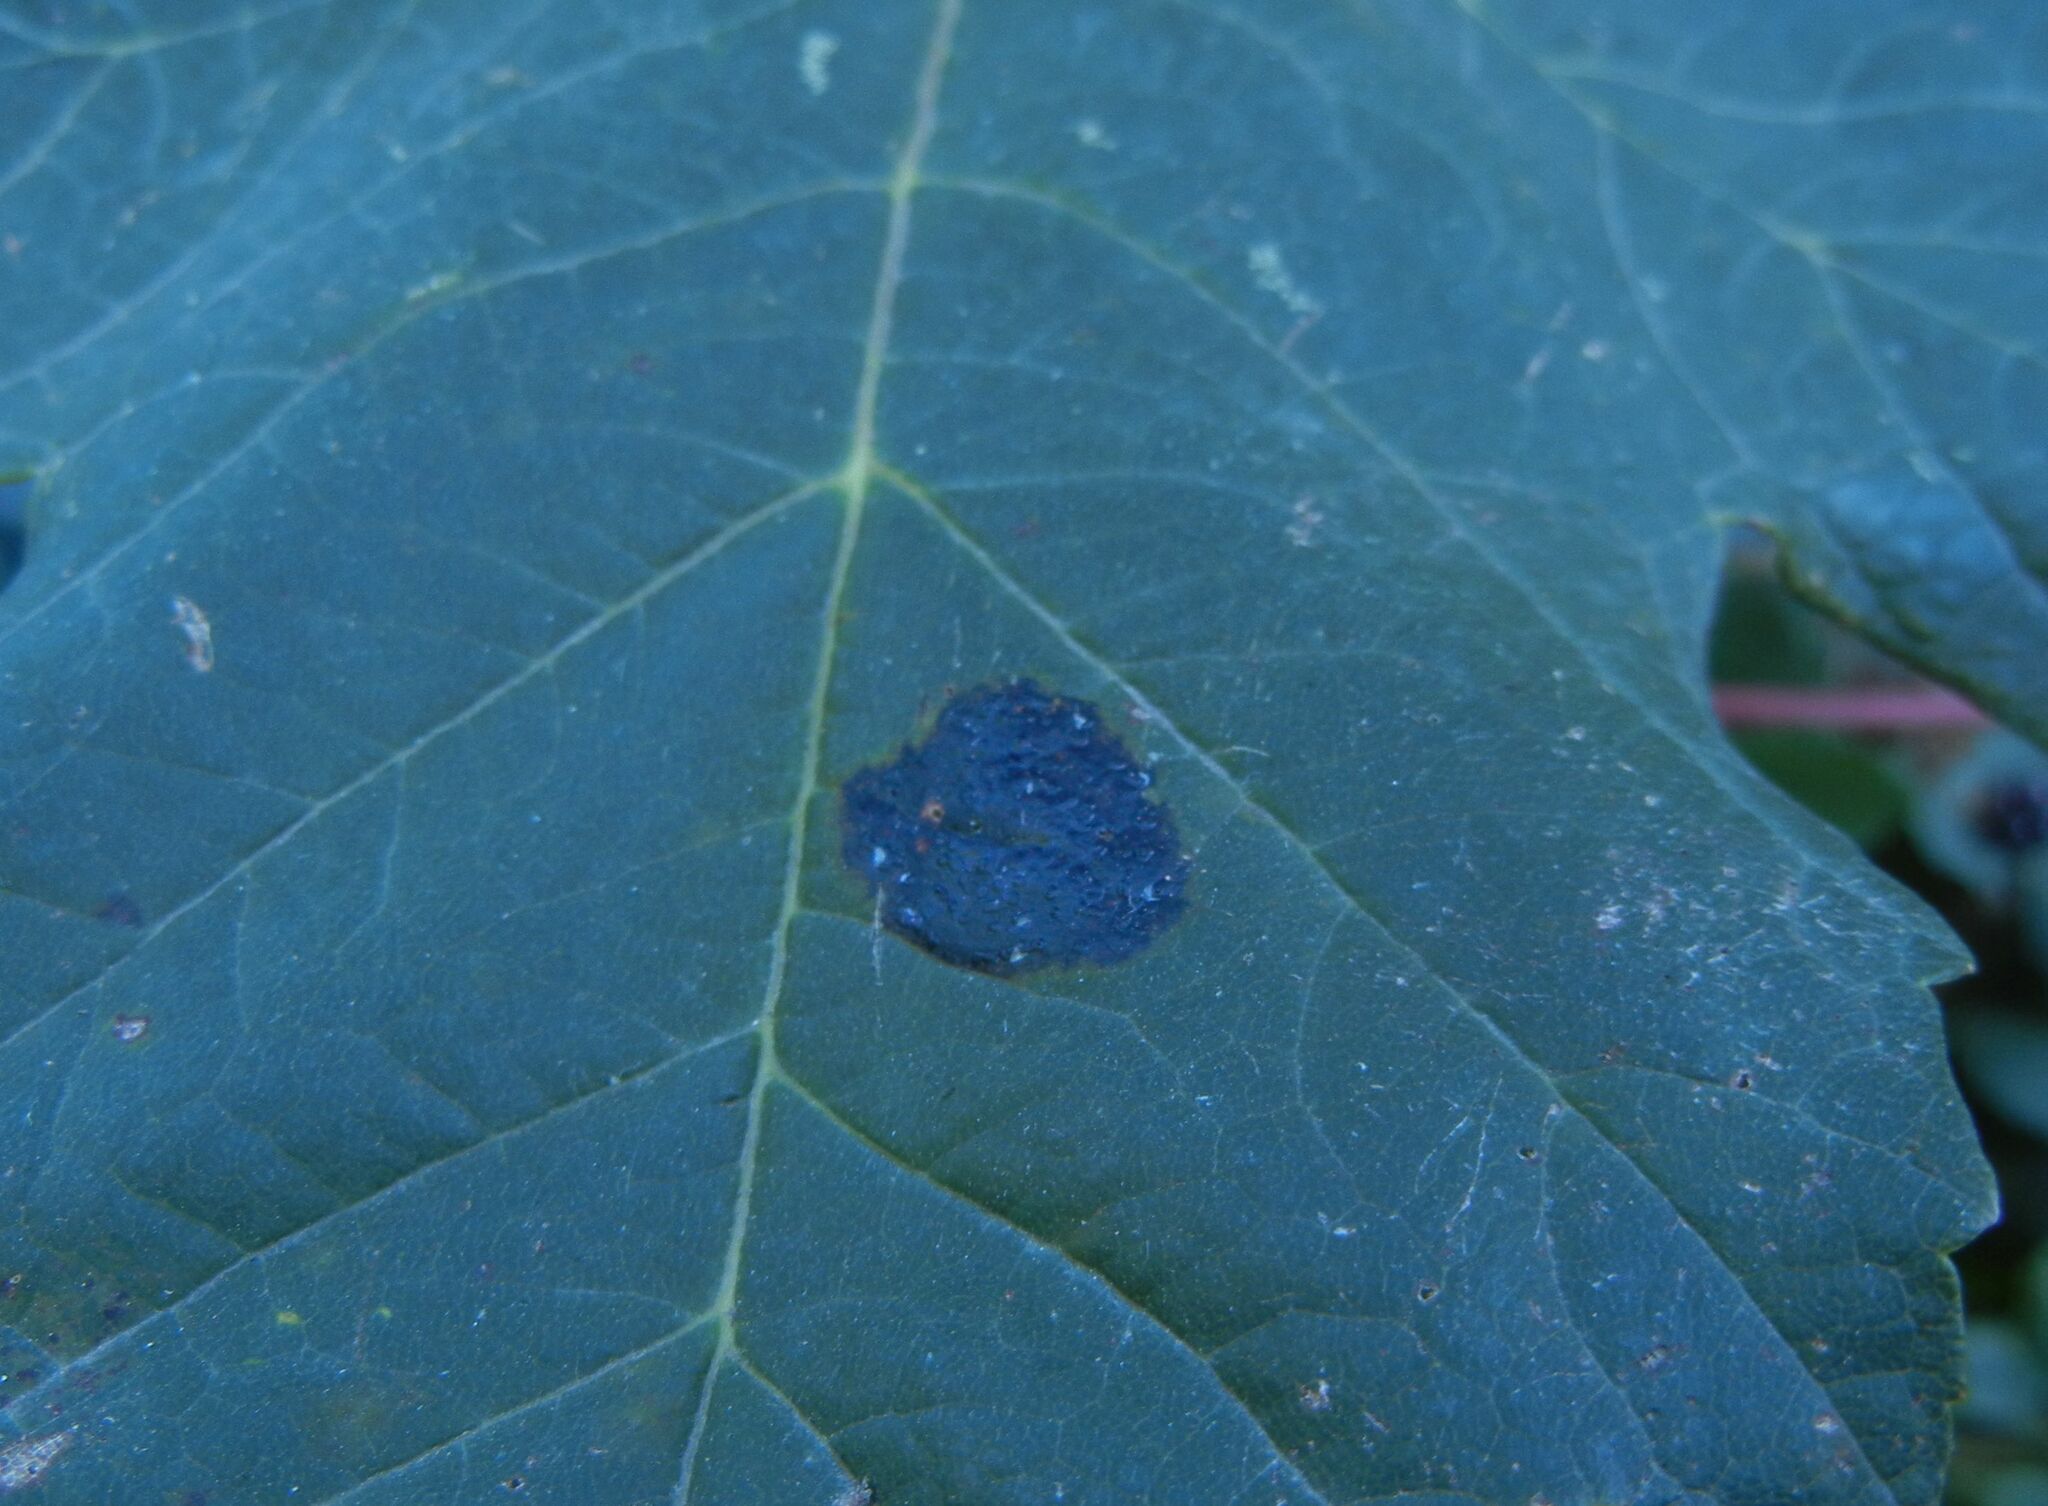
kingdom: Fungi
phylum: Ascomycota
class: Leotiomycetes
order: Rhytismatales
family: Rhytismataceae
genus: Rhytisma
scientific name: Rhytisma acerinum
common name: European tar spot
